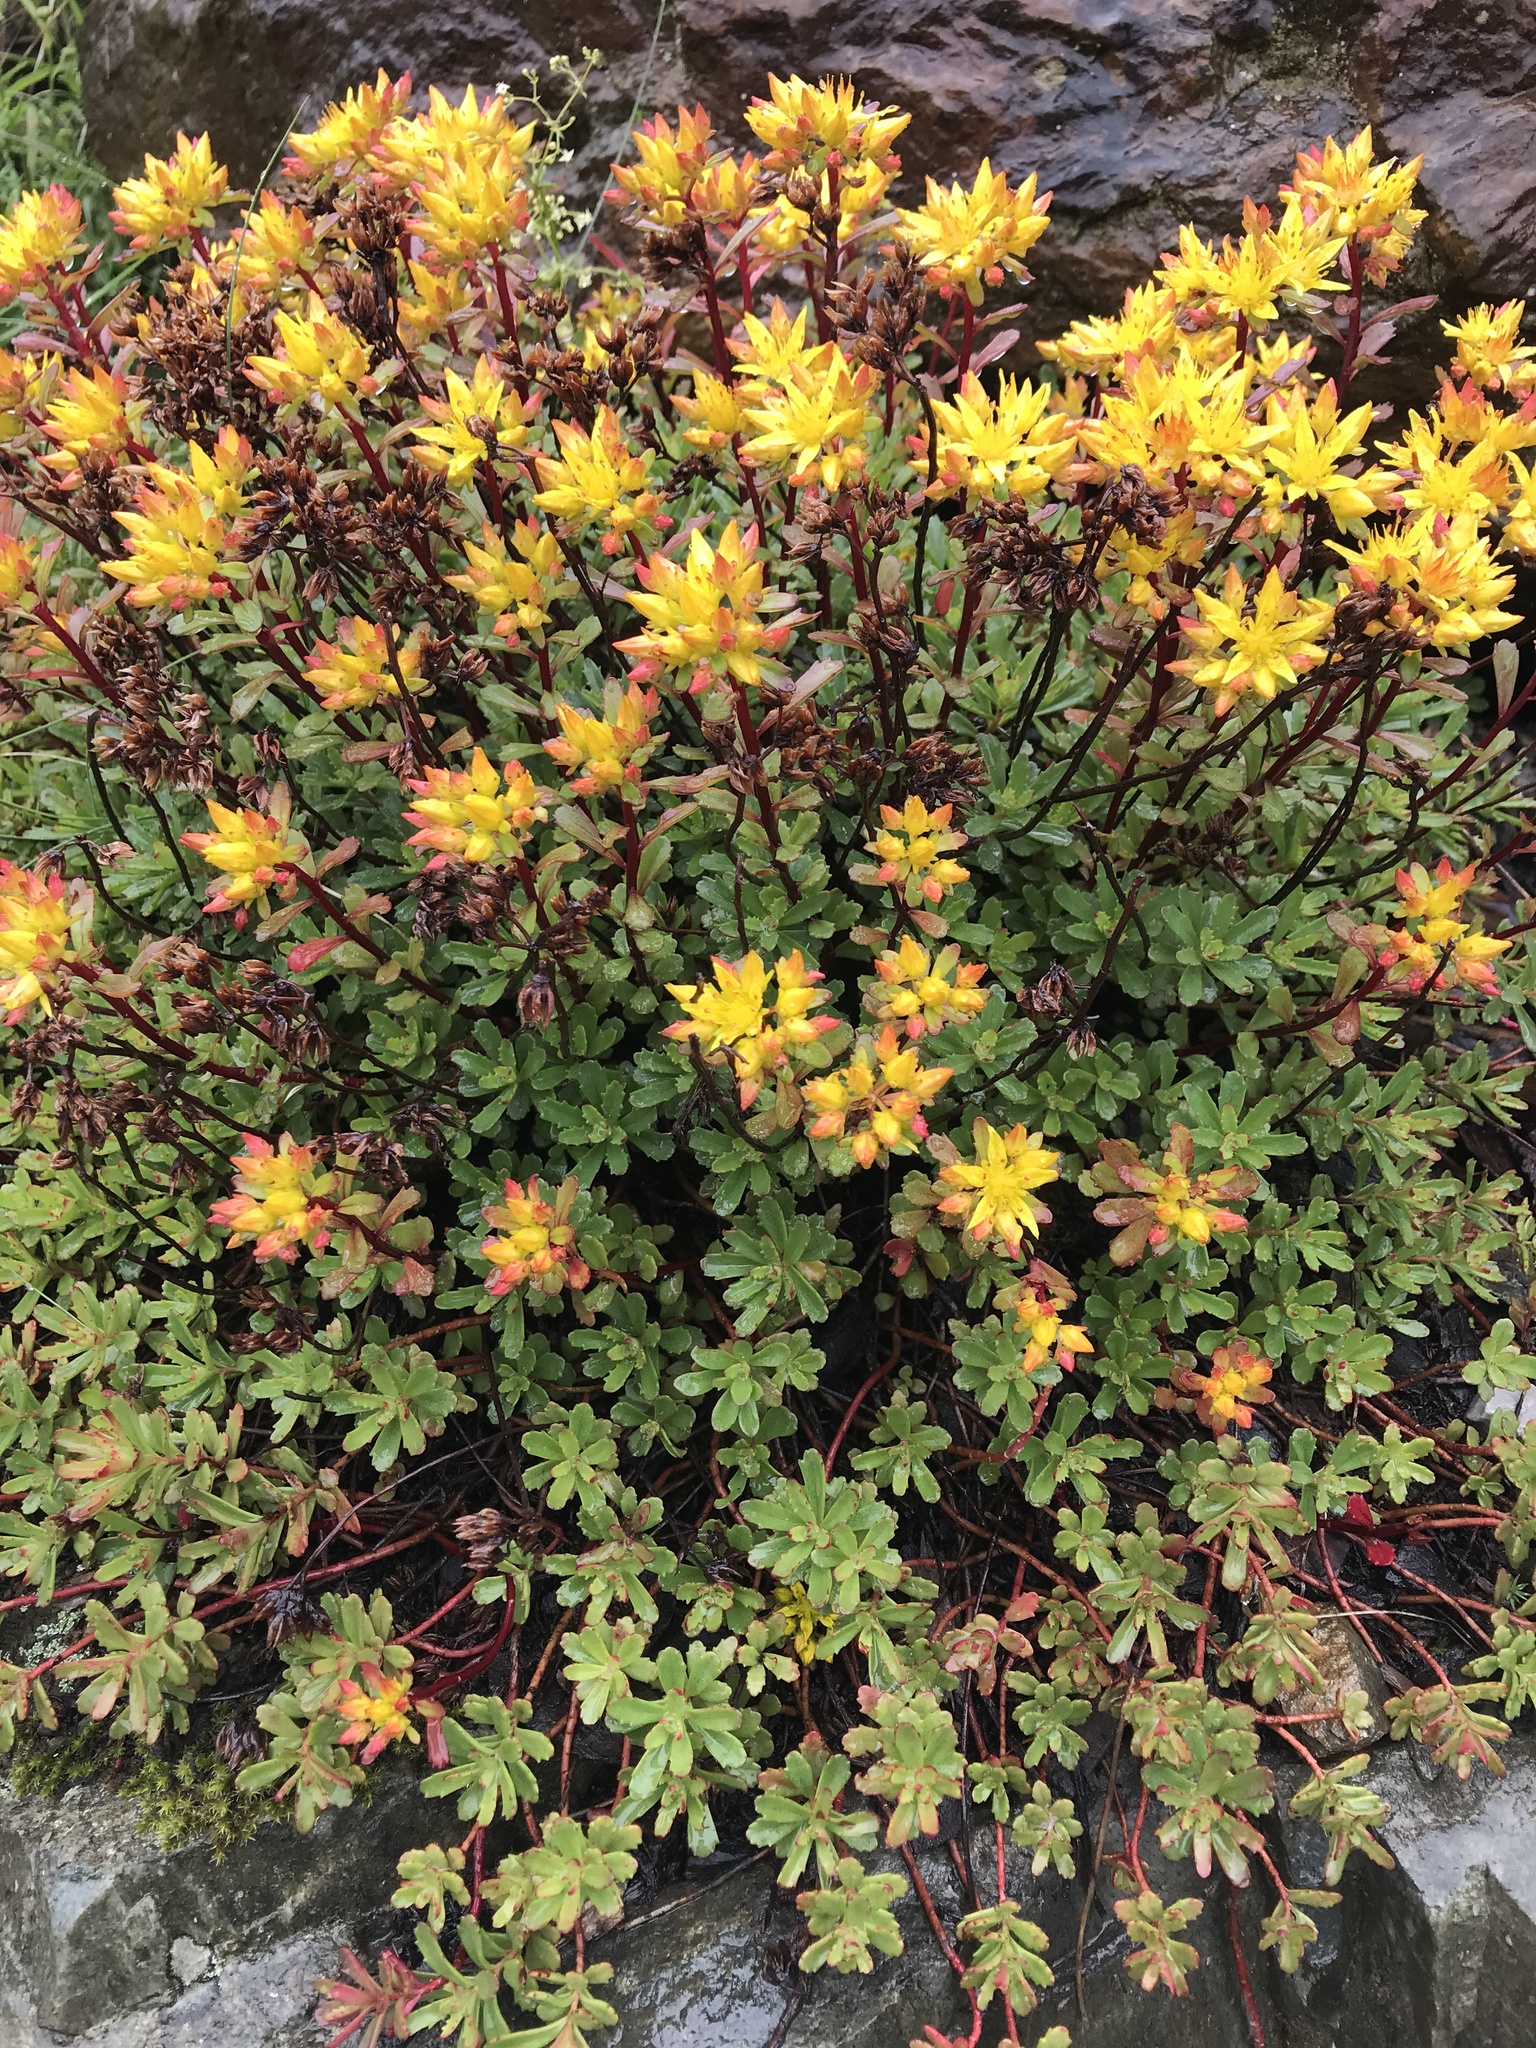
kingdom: Plantae
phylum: Tracheophyta
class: Magnoliopsida
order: Saxifragales
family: Crassulaceae
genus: Phedimus
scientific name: Phedimus hybridus
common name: Hybrid stonecrop
